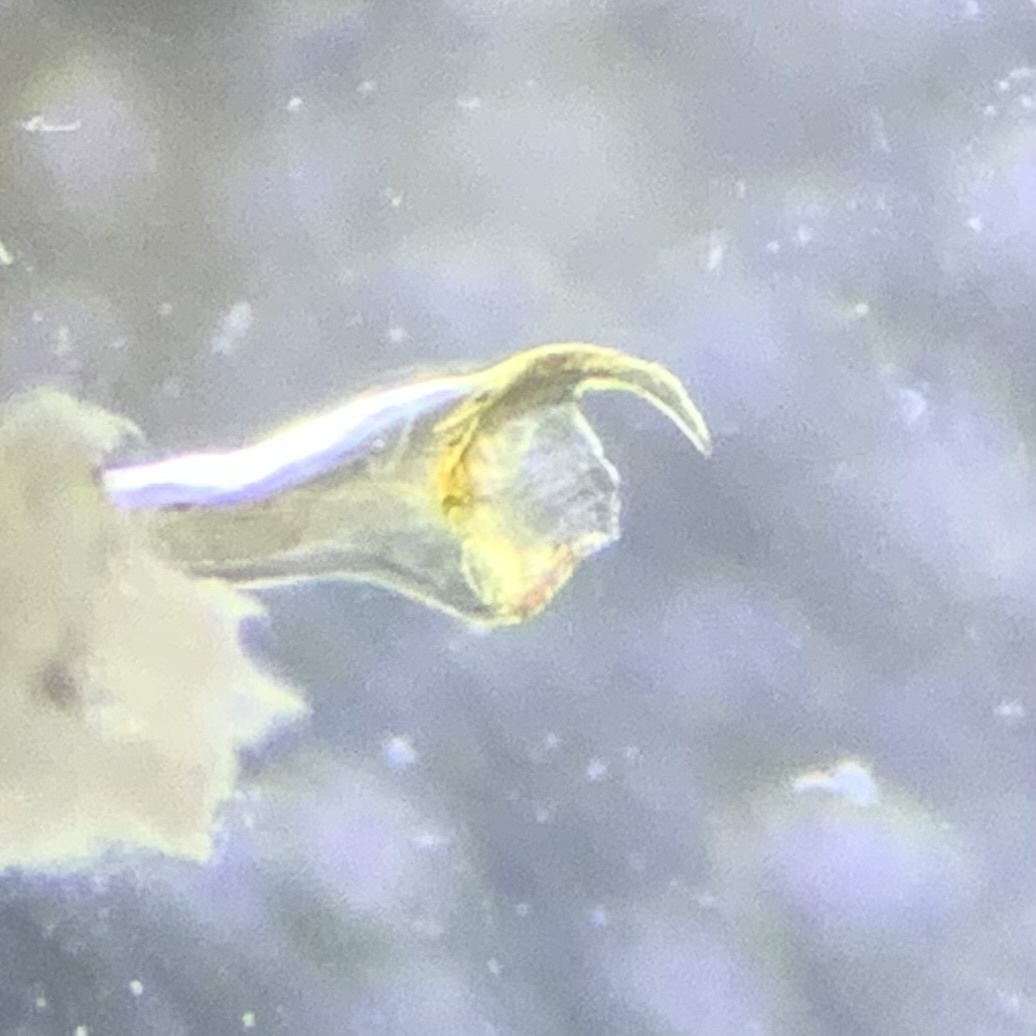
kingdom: Animalia
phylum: Arthropoda
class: Diplopoda
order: Chordeumatida
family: Craspedosomatidae
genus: Pyrgocyphosoma
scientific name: Pyrgocyphosoma arvernum
